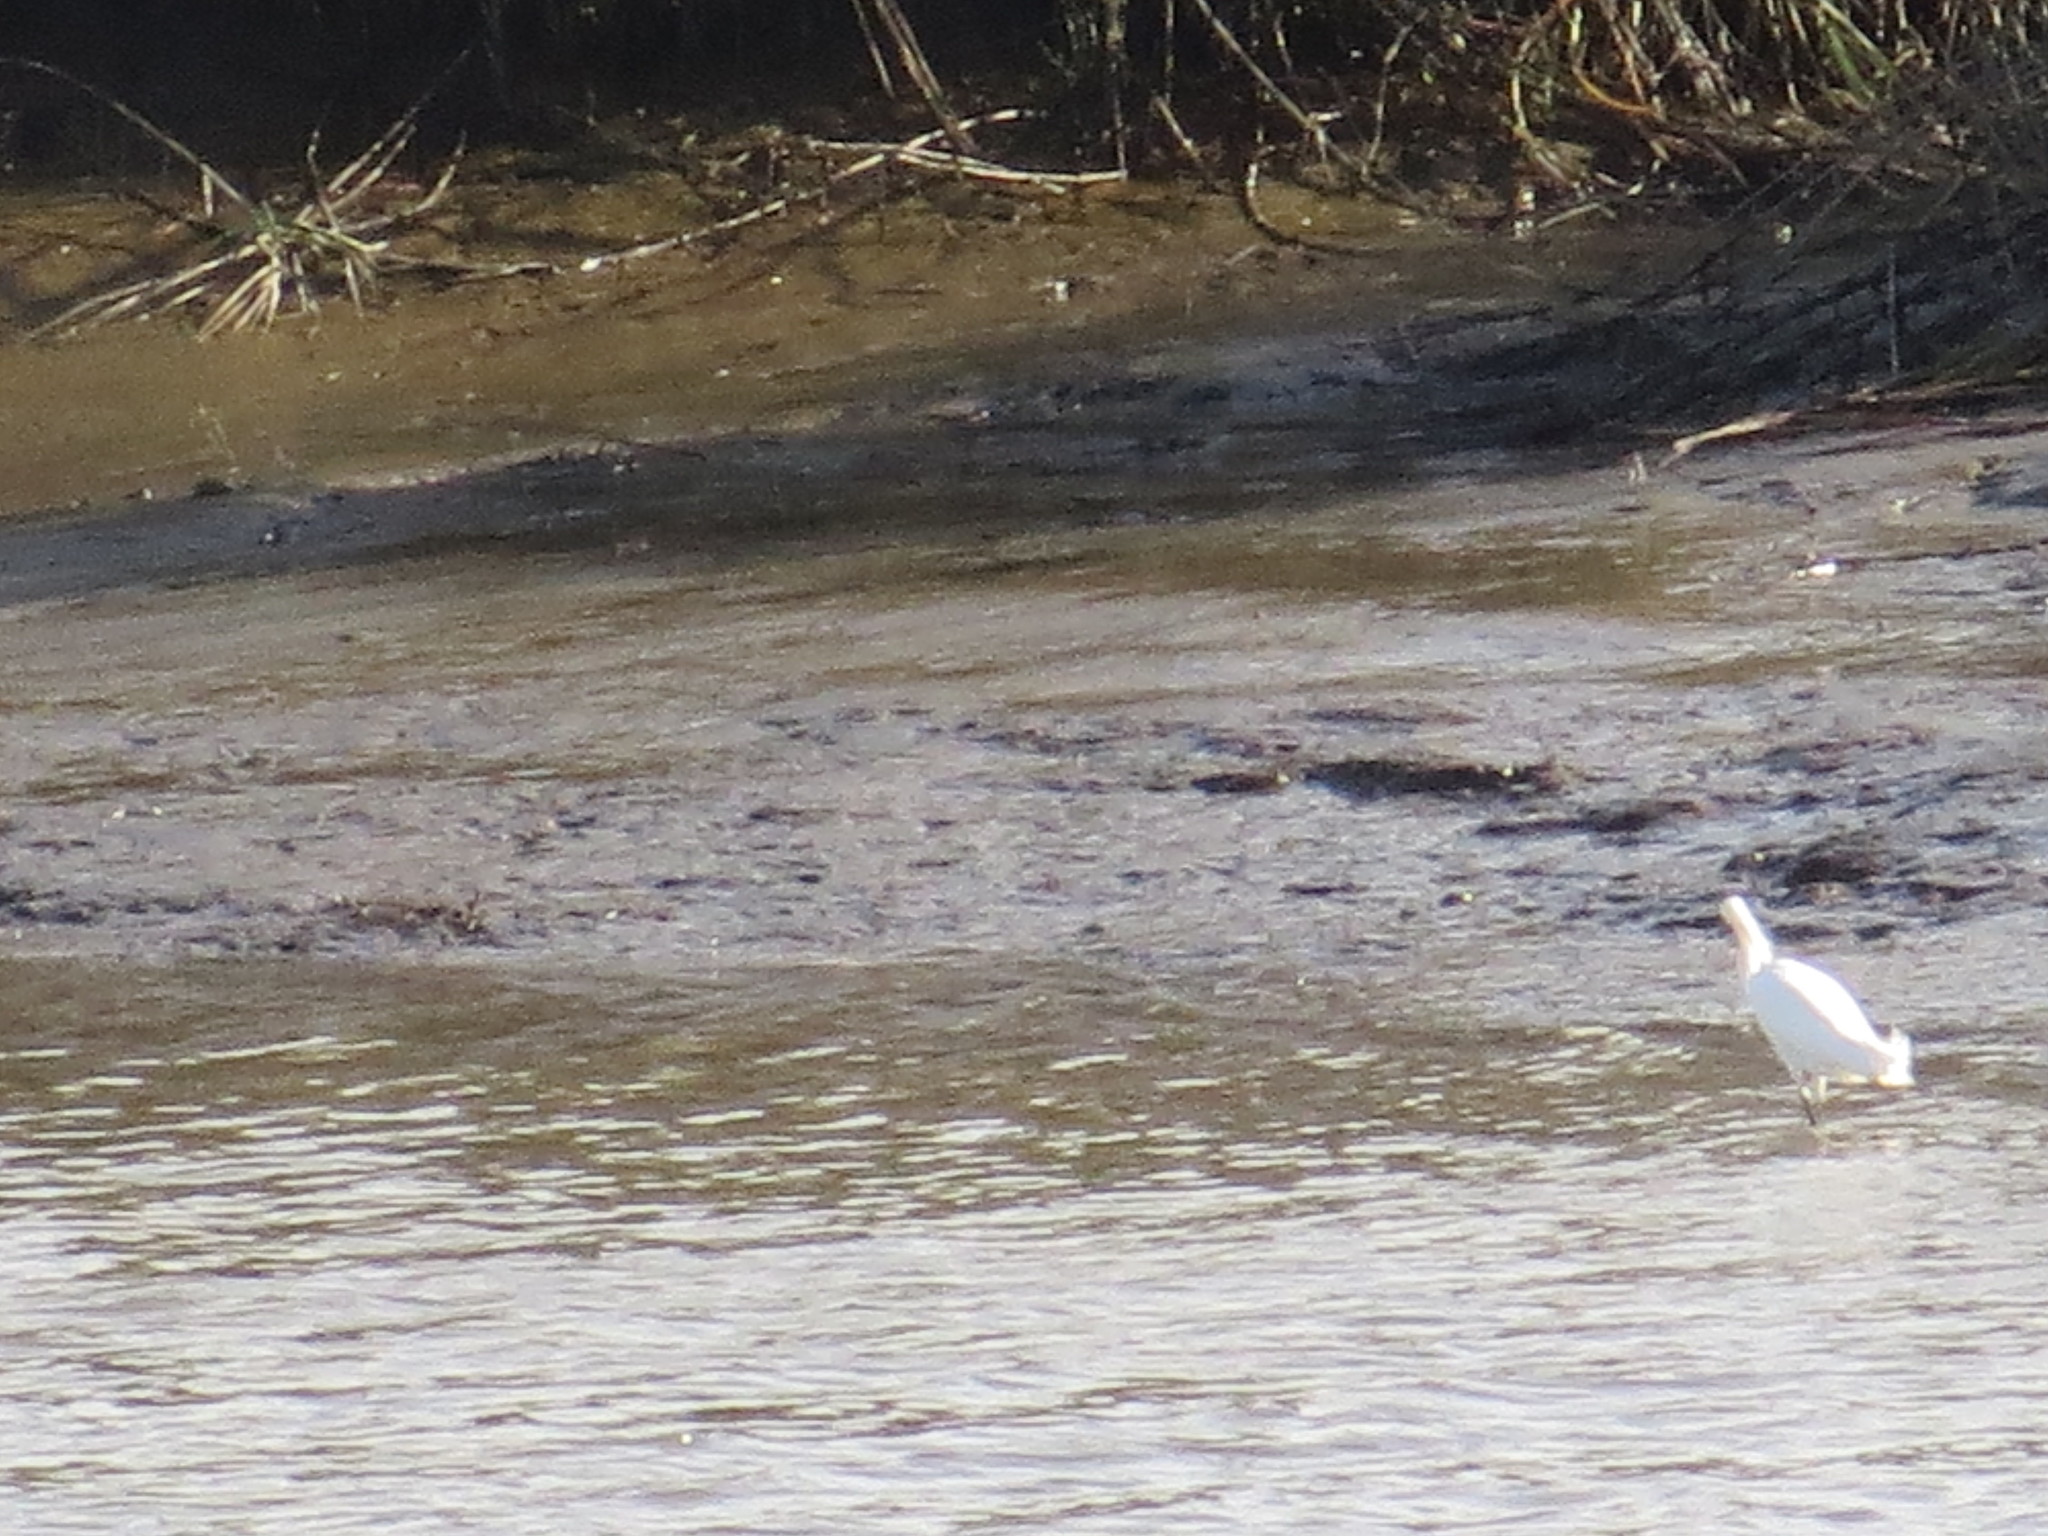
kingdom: Animalia
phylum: Chordata
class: Aves
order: Pelecaniformes
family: Ardeidae
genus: Egretta
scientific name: Egretta thula
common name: Snowy egret
